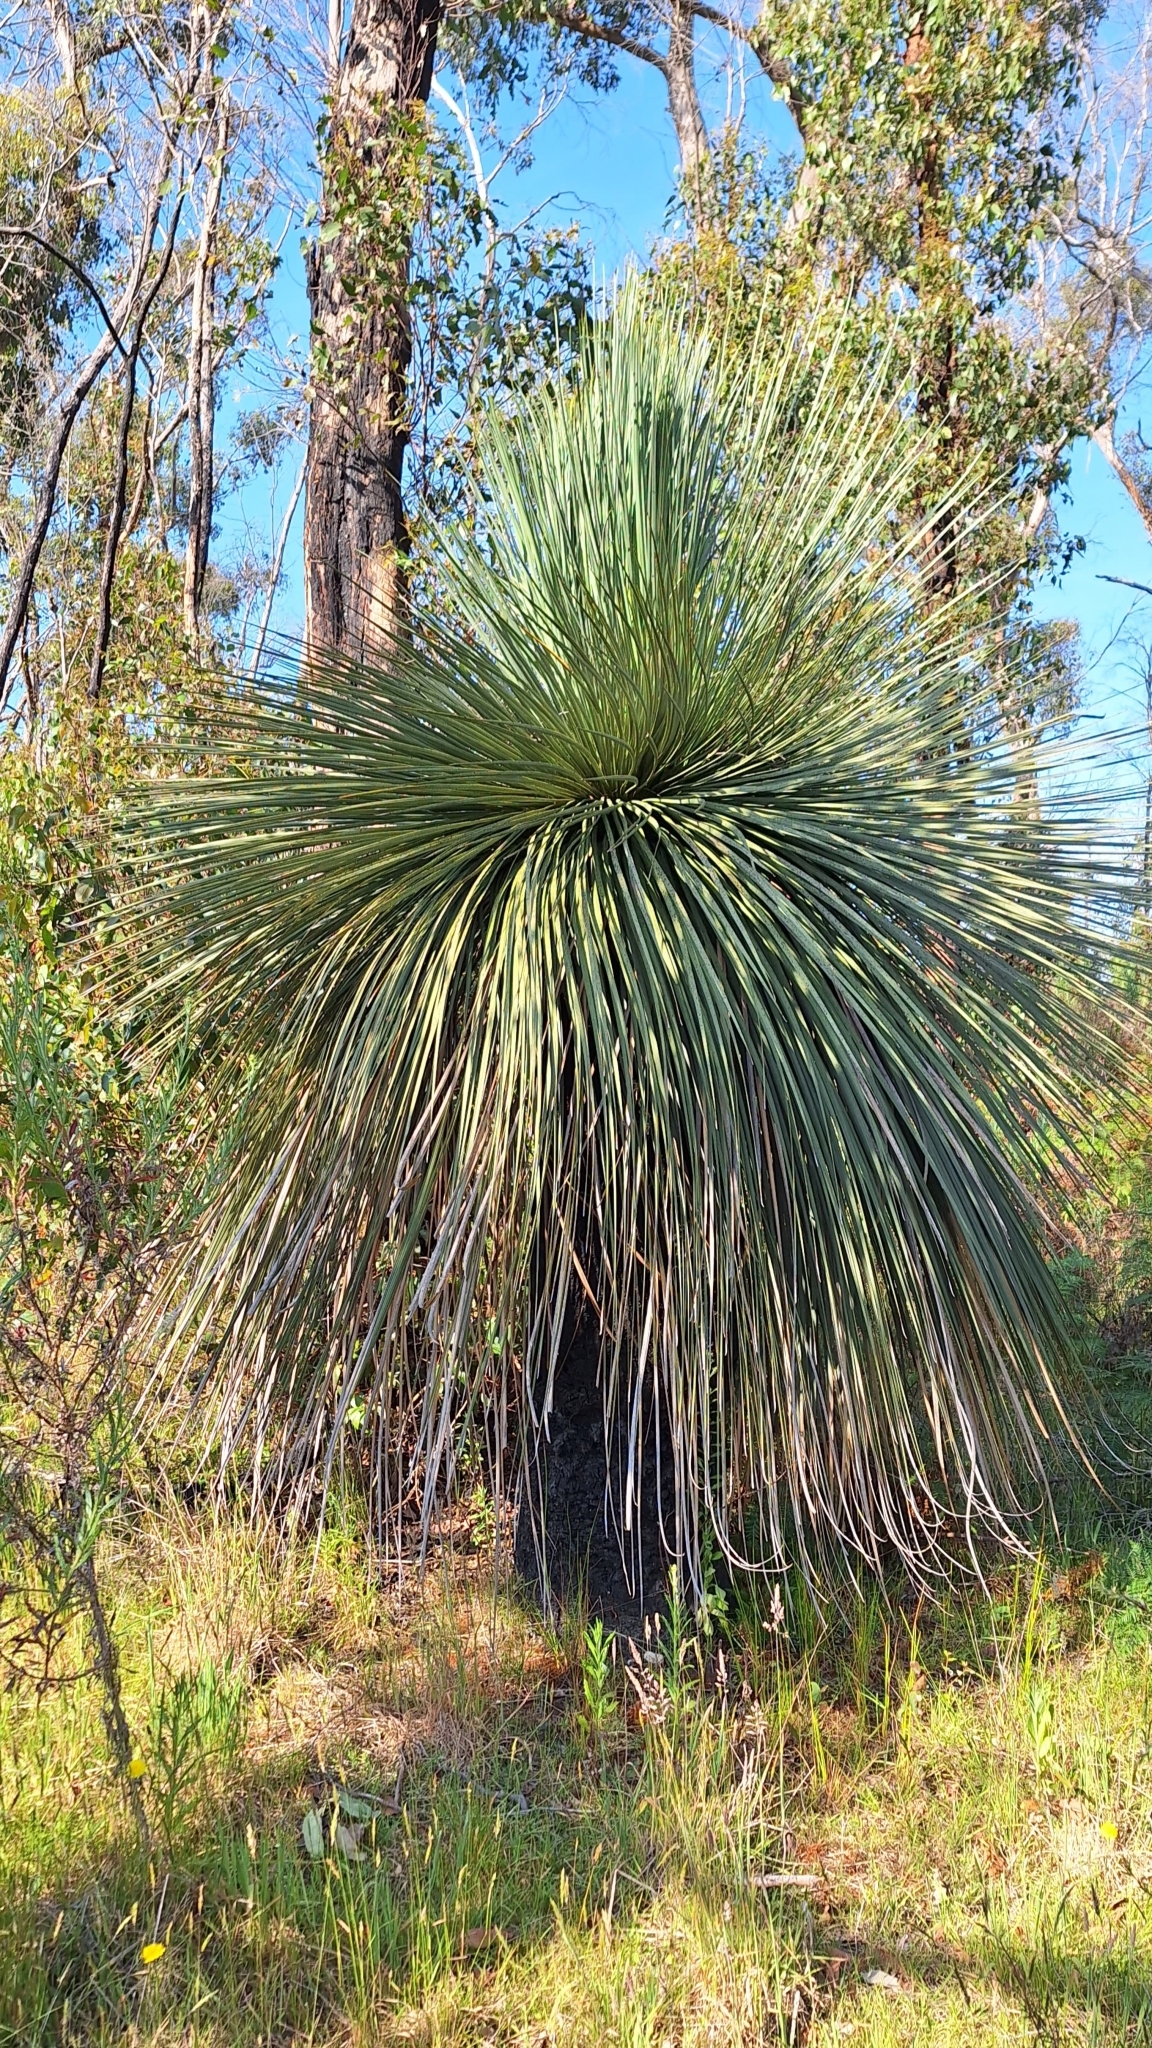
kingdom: Plantae
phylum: Tracheophyta
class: Liliopsida
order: Asparagales
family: Asphodelaceae
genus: Xanthorrhoea
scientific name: Xanthorrhoea semiplana
